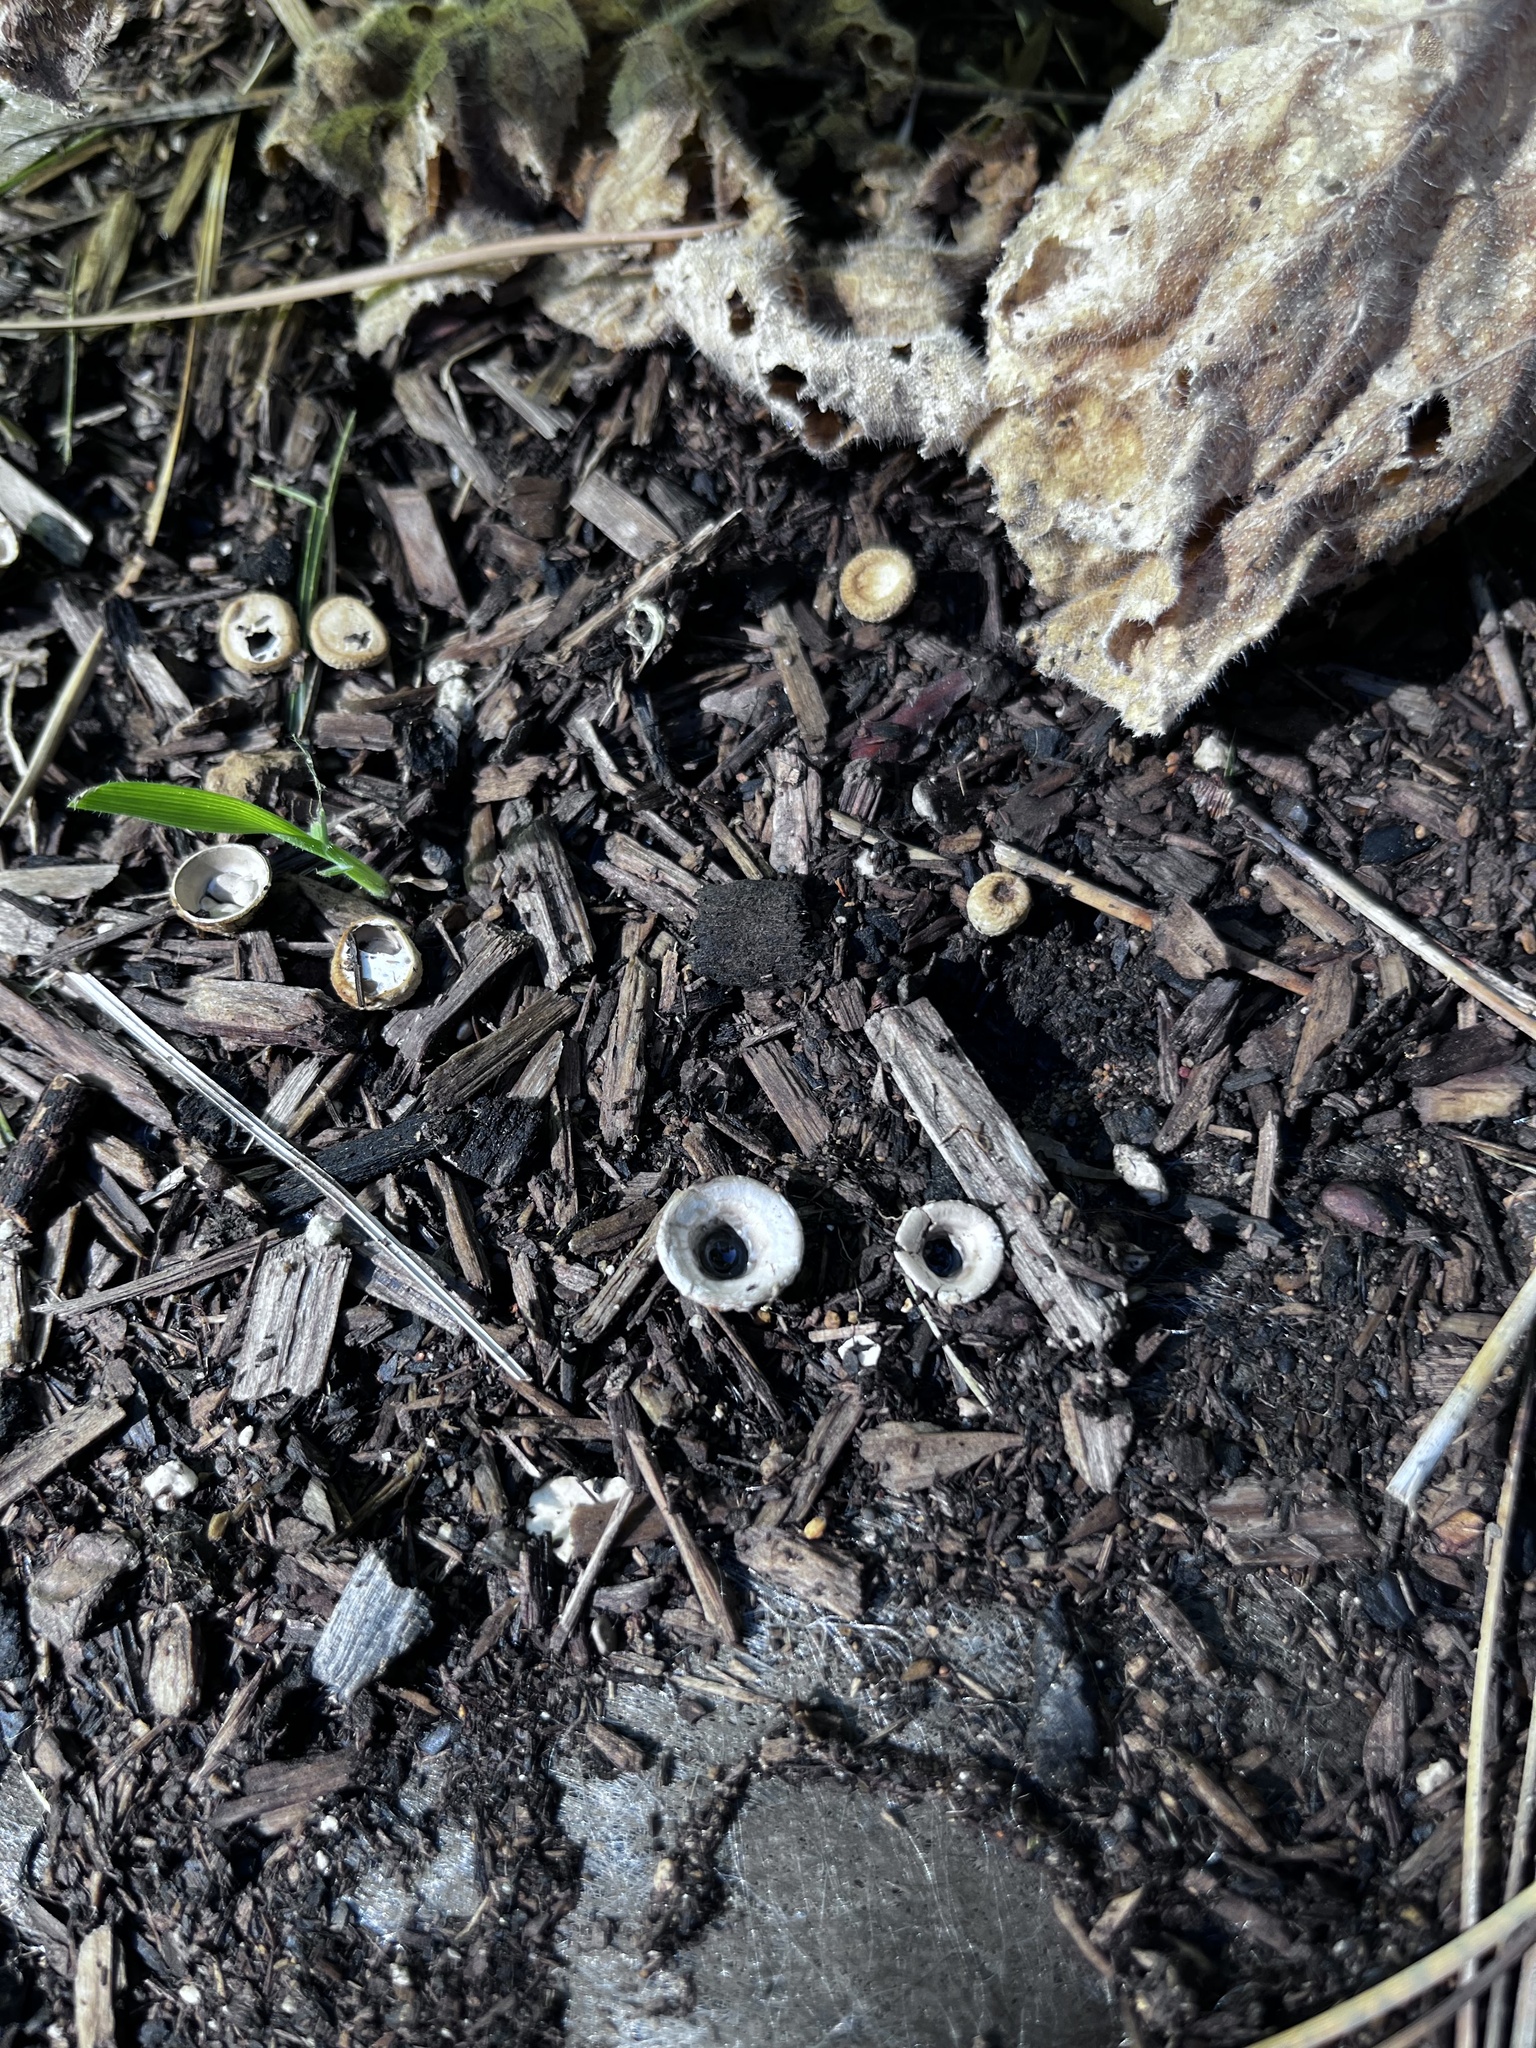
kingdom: Fungi
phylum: Basidiomycota
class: Agaricomycetes
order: Agaricales
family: Agaricaceae
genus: Cyathus
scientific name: Cyathus olla
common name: Field bird's nest
